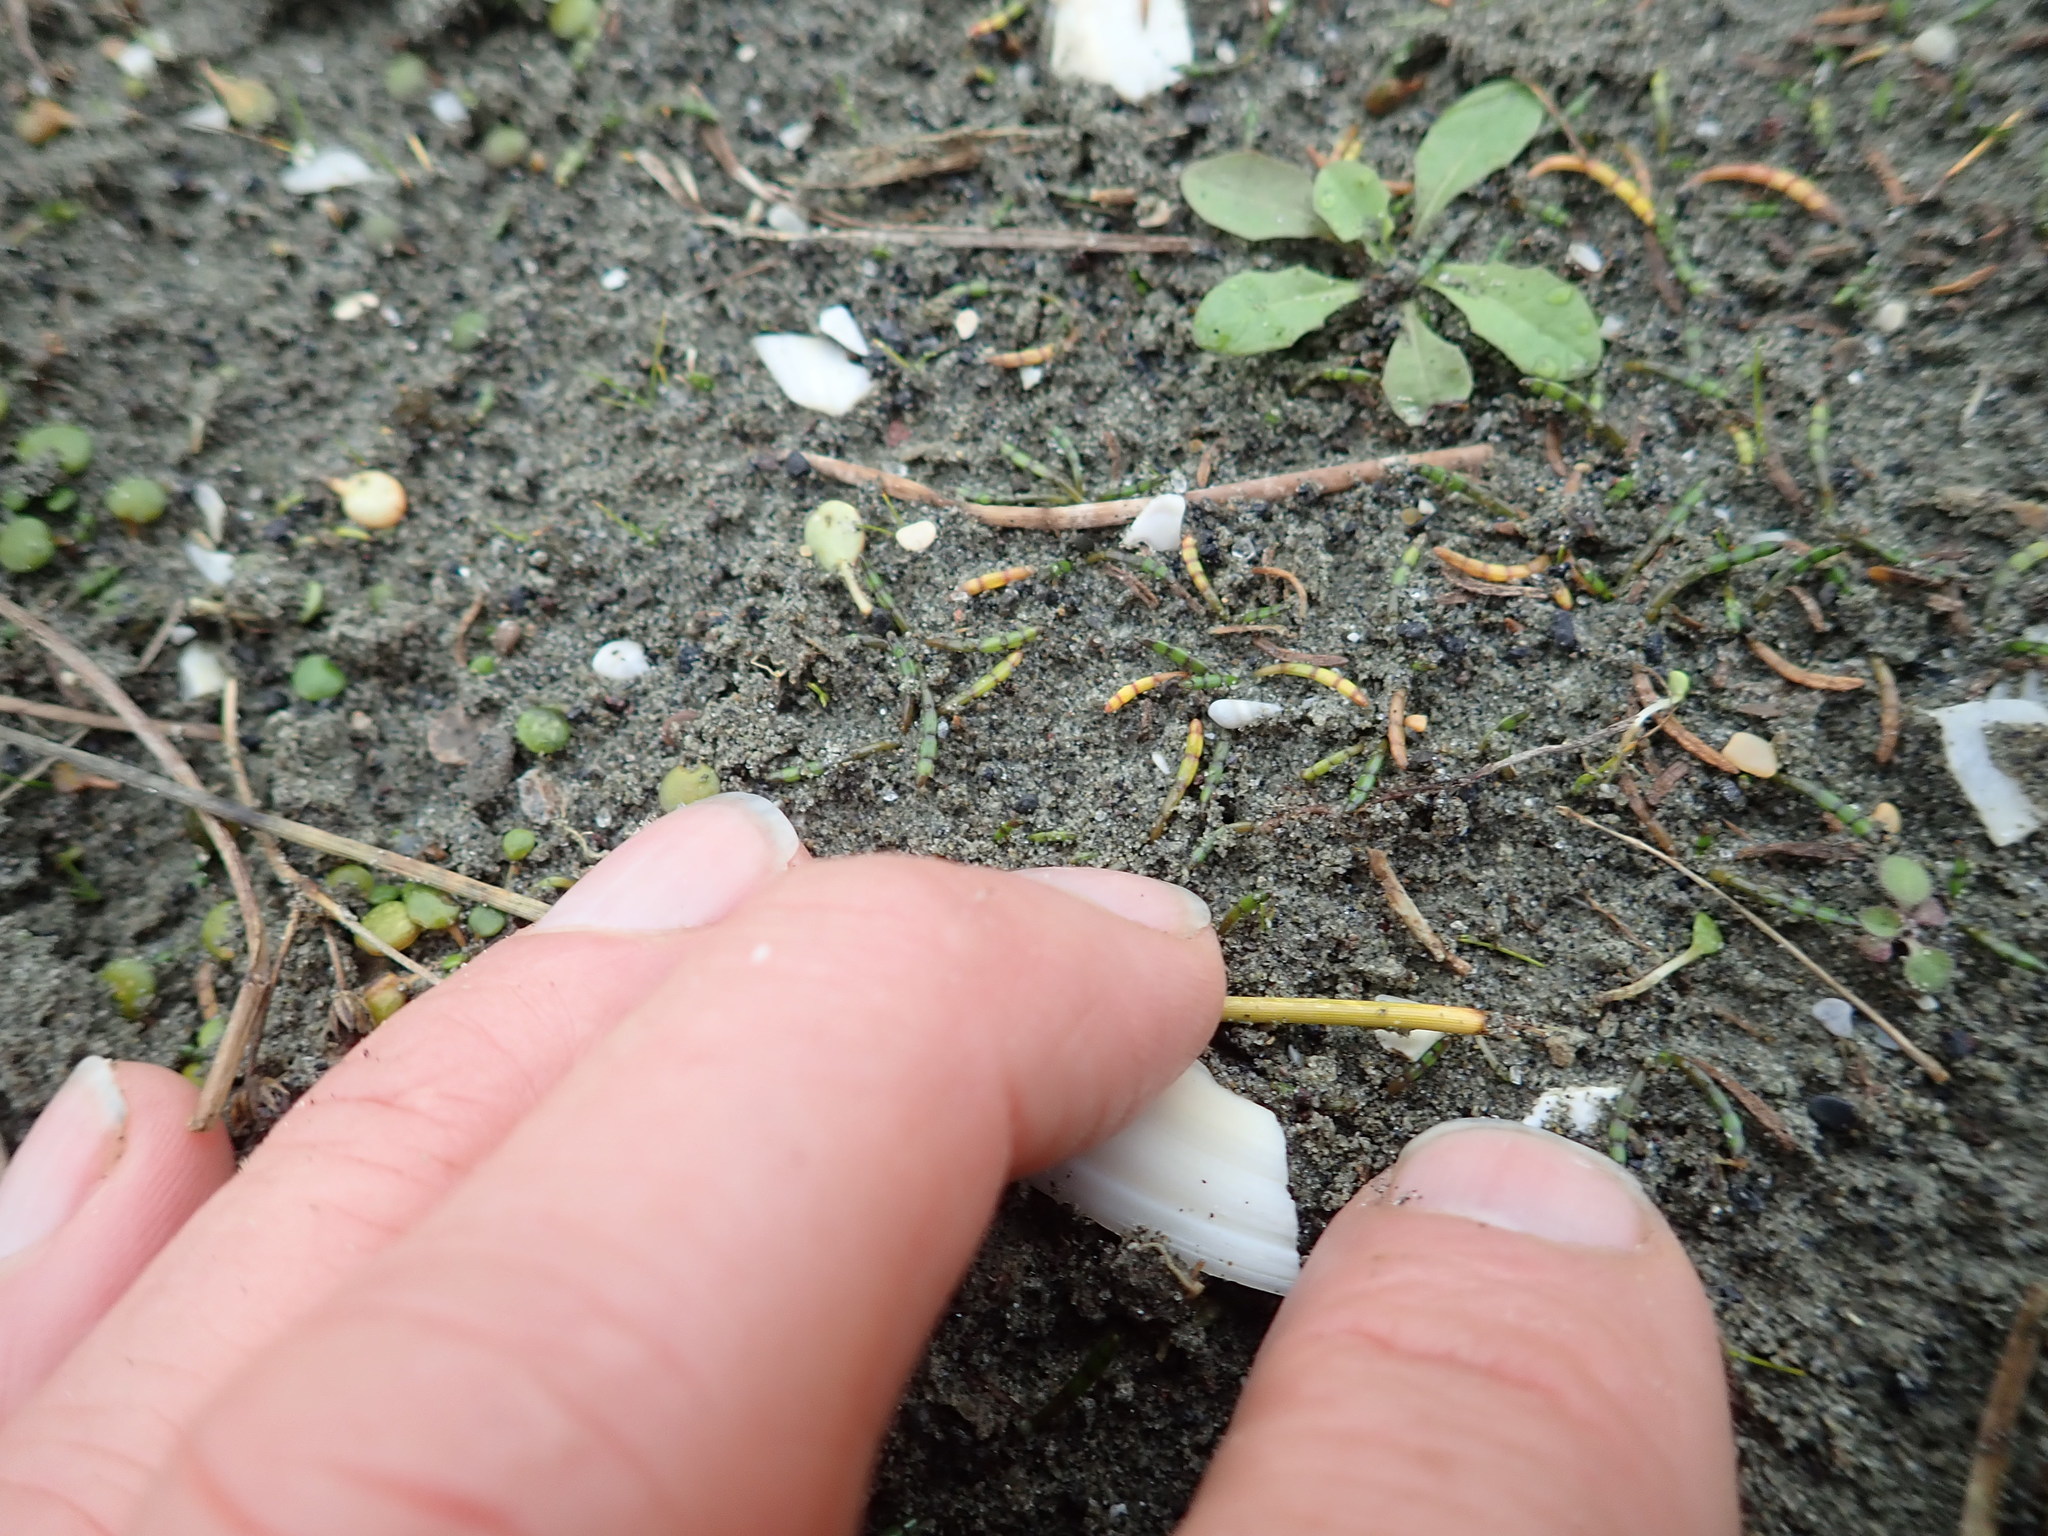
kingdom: Plantae
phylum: Tracheophyta
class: Magnoliopsida
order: Apiales
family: Apiaceae
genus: Lilaeopsis
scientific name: Lilaeopsis novae-zelandiae
